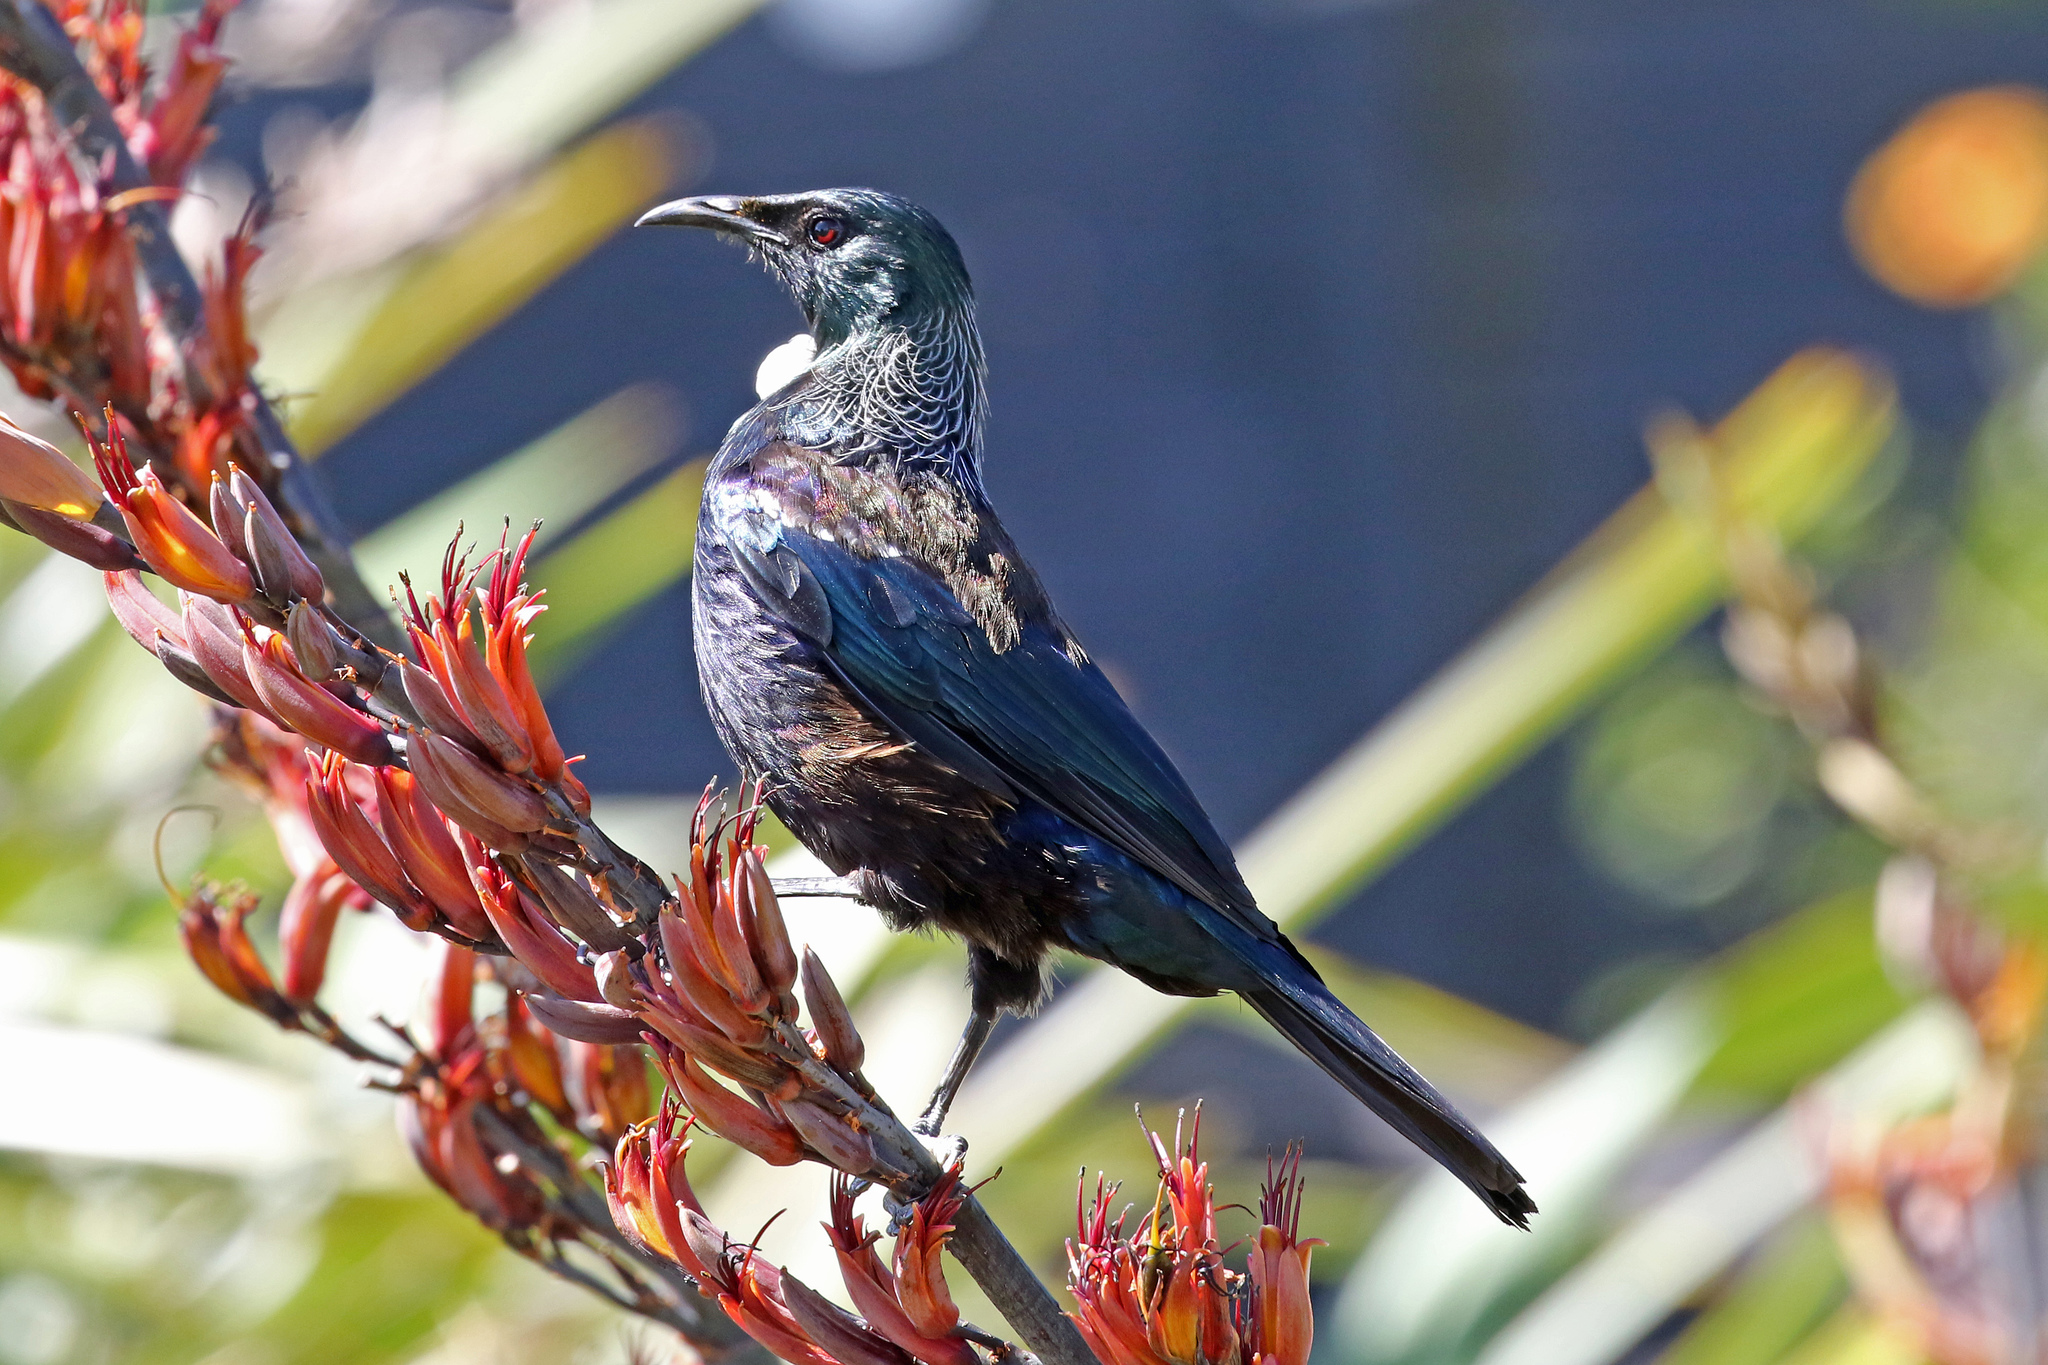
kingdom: Animalia
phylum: Chordata
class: Aves
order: Passeriformes
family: Meliphagidae
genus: Prosthemadera
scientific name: Prosthemadera novaeseelandiae
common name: Tui
